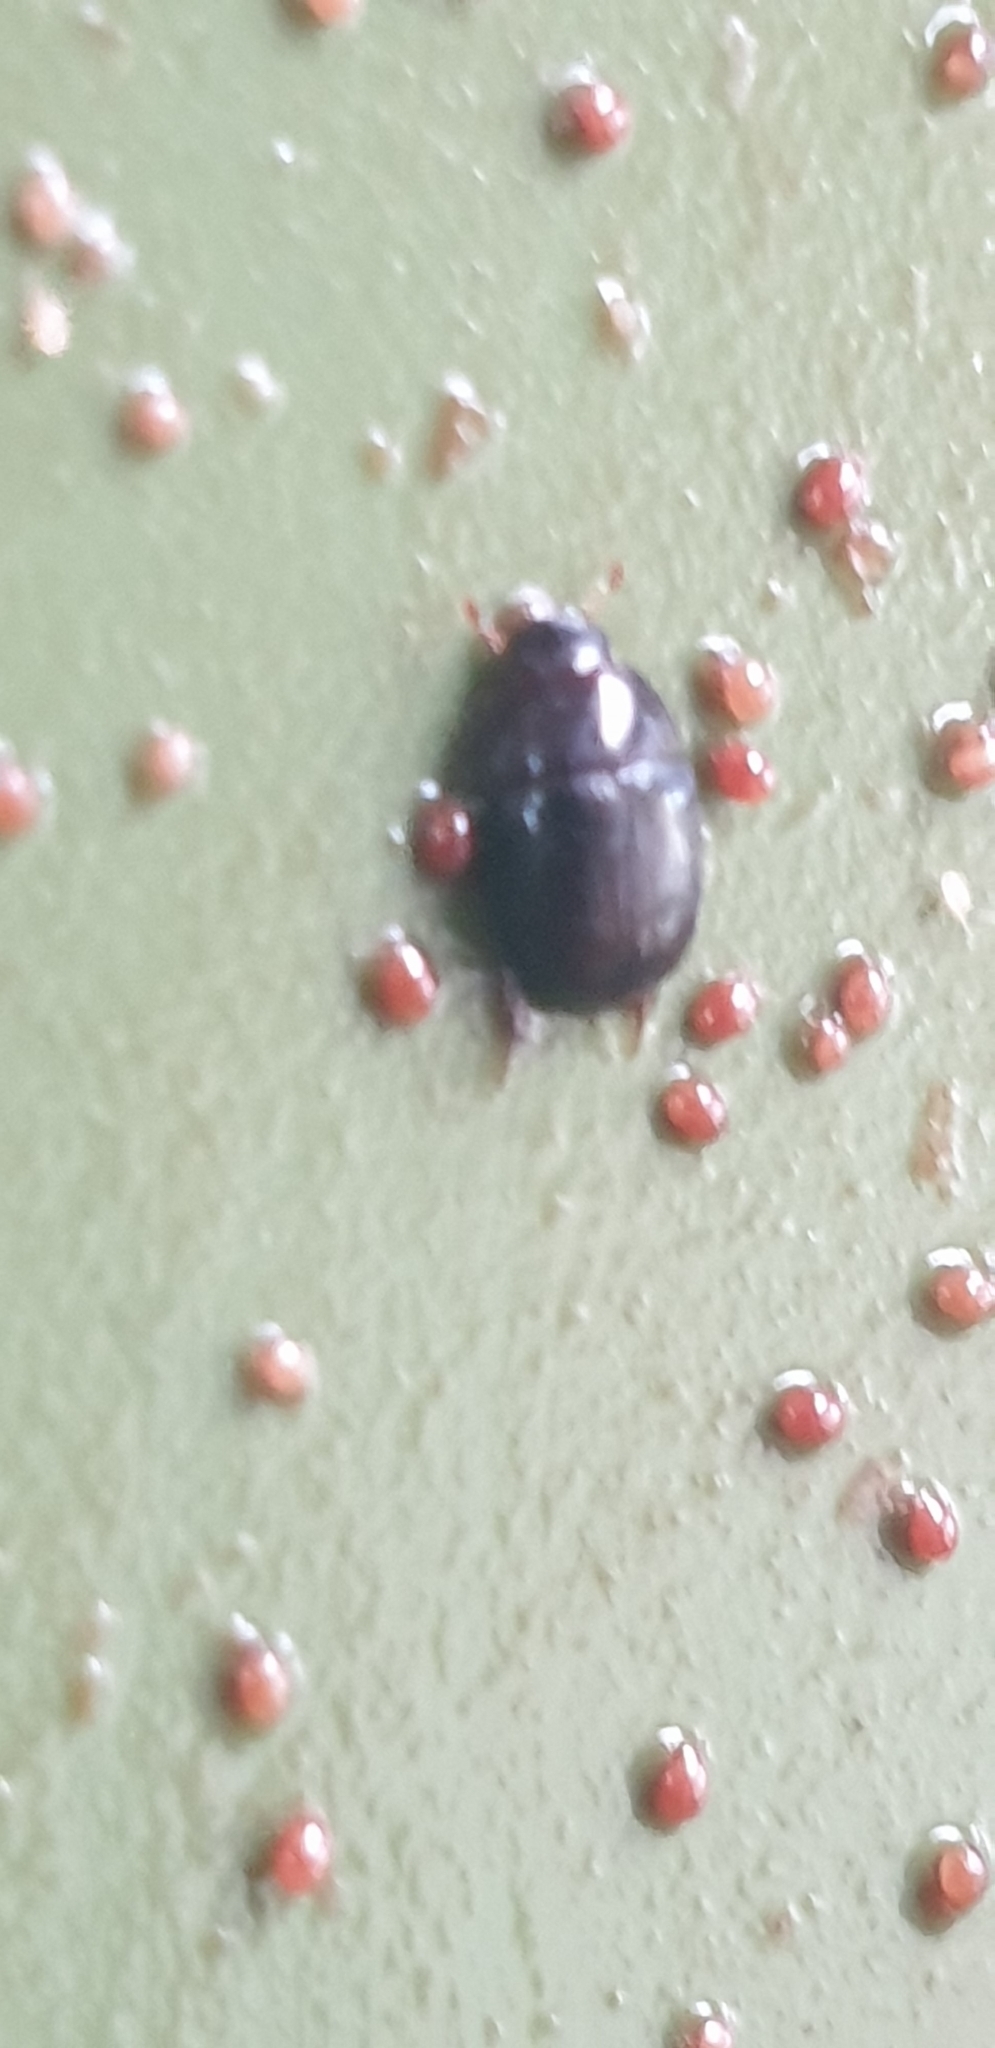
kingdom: Animalia
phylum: Arthropoda
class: Insecta
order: Coleoptera
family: Hydrophilidae
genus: Dactylosternum
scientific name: Dactylosternum abdominale
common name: Water scavenger beetle
